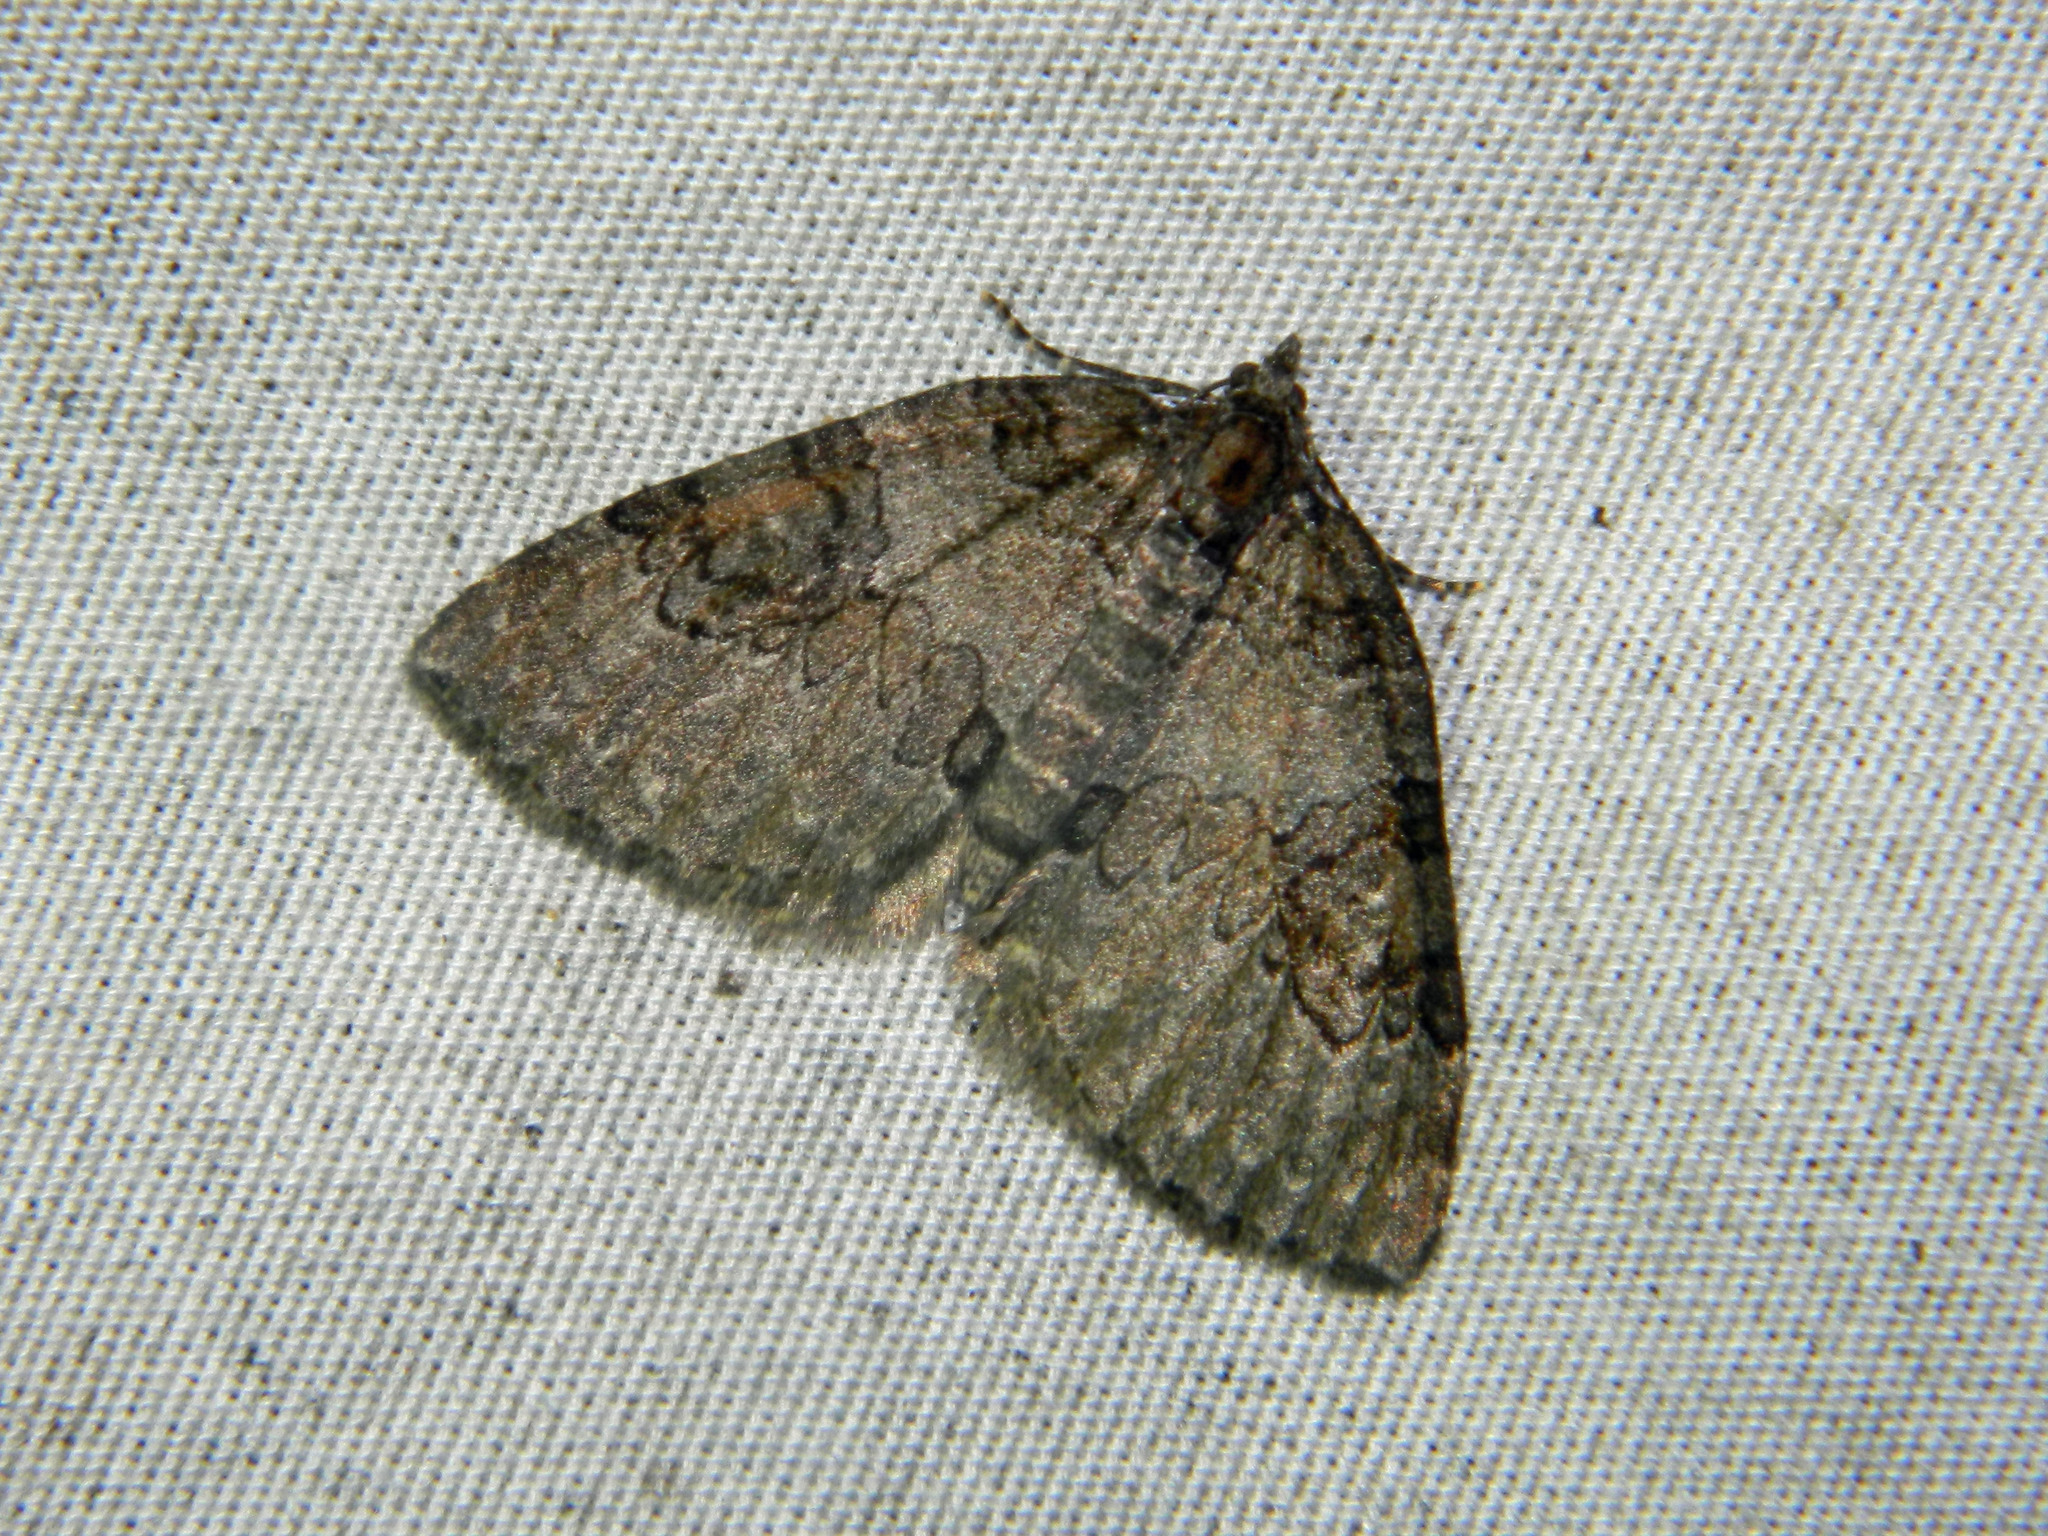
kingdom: Animalia
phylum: Arthropoda
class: Insecta
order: Lepidoptera
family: Geometridae
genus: Plemyria
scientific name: Plemyria georgii
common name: George's carpet moth
